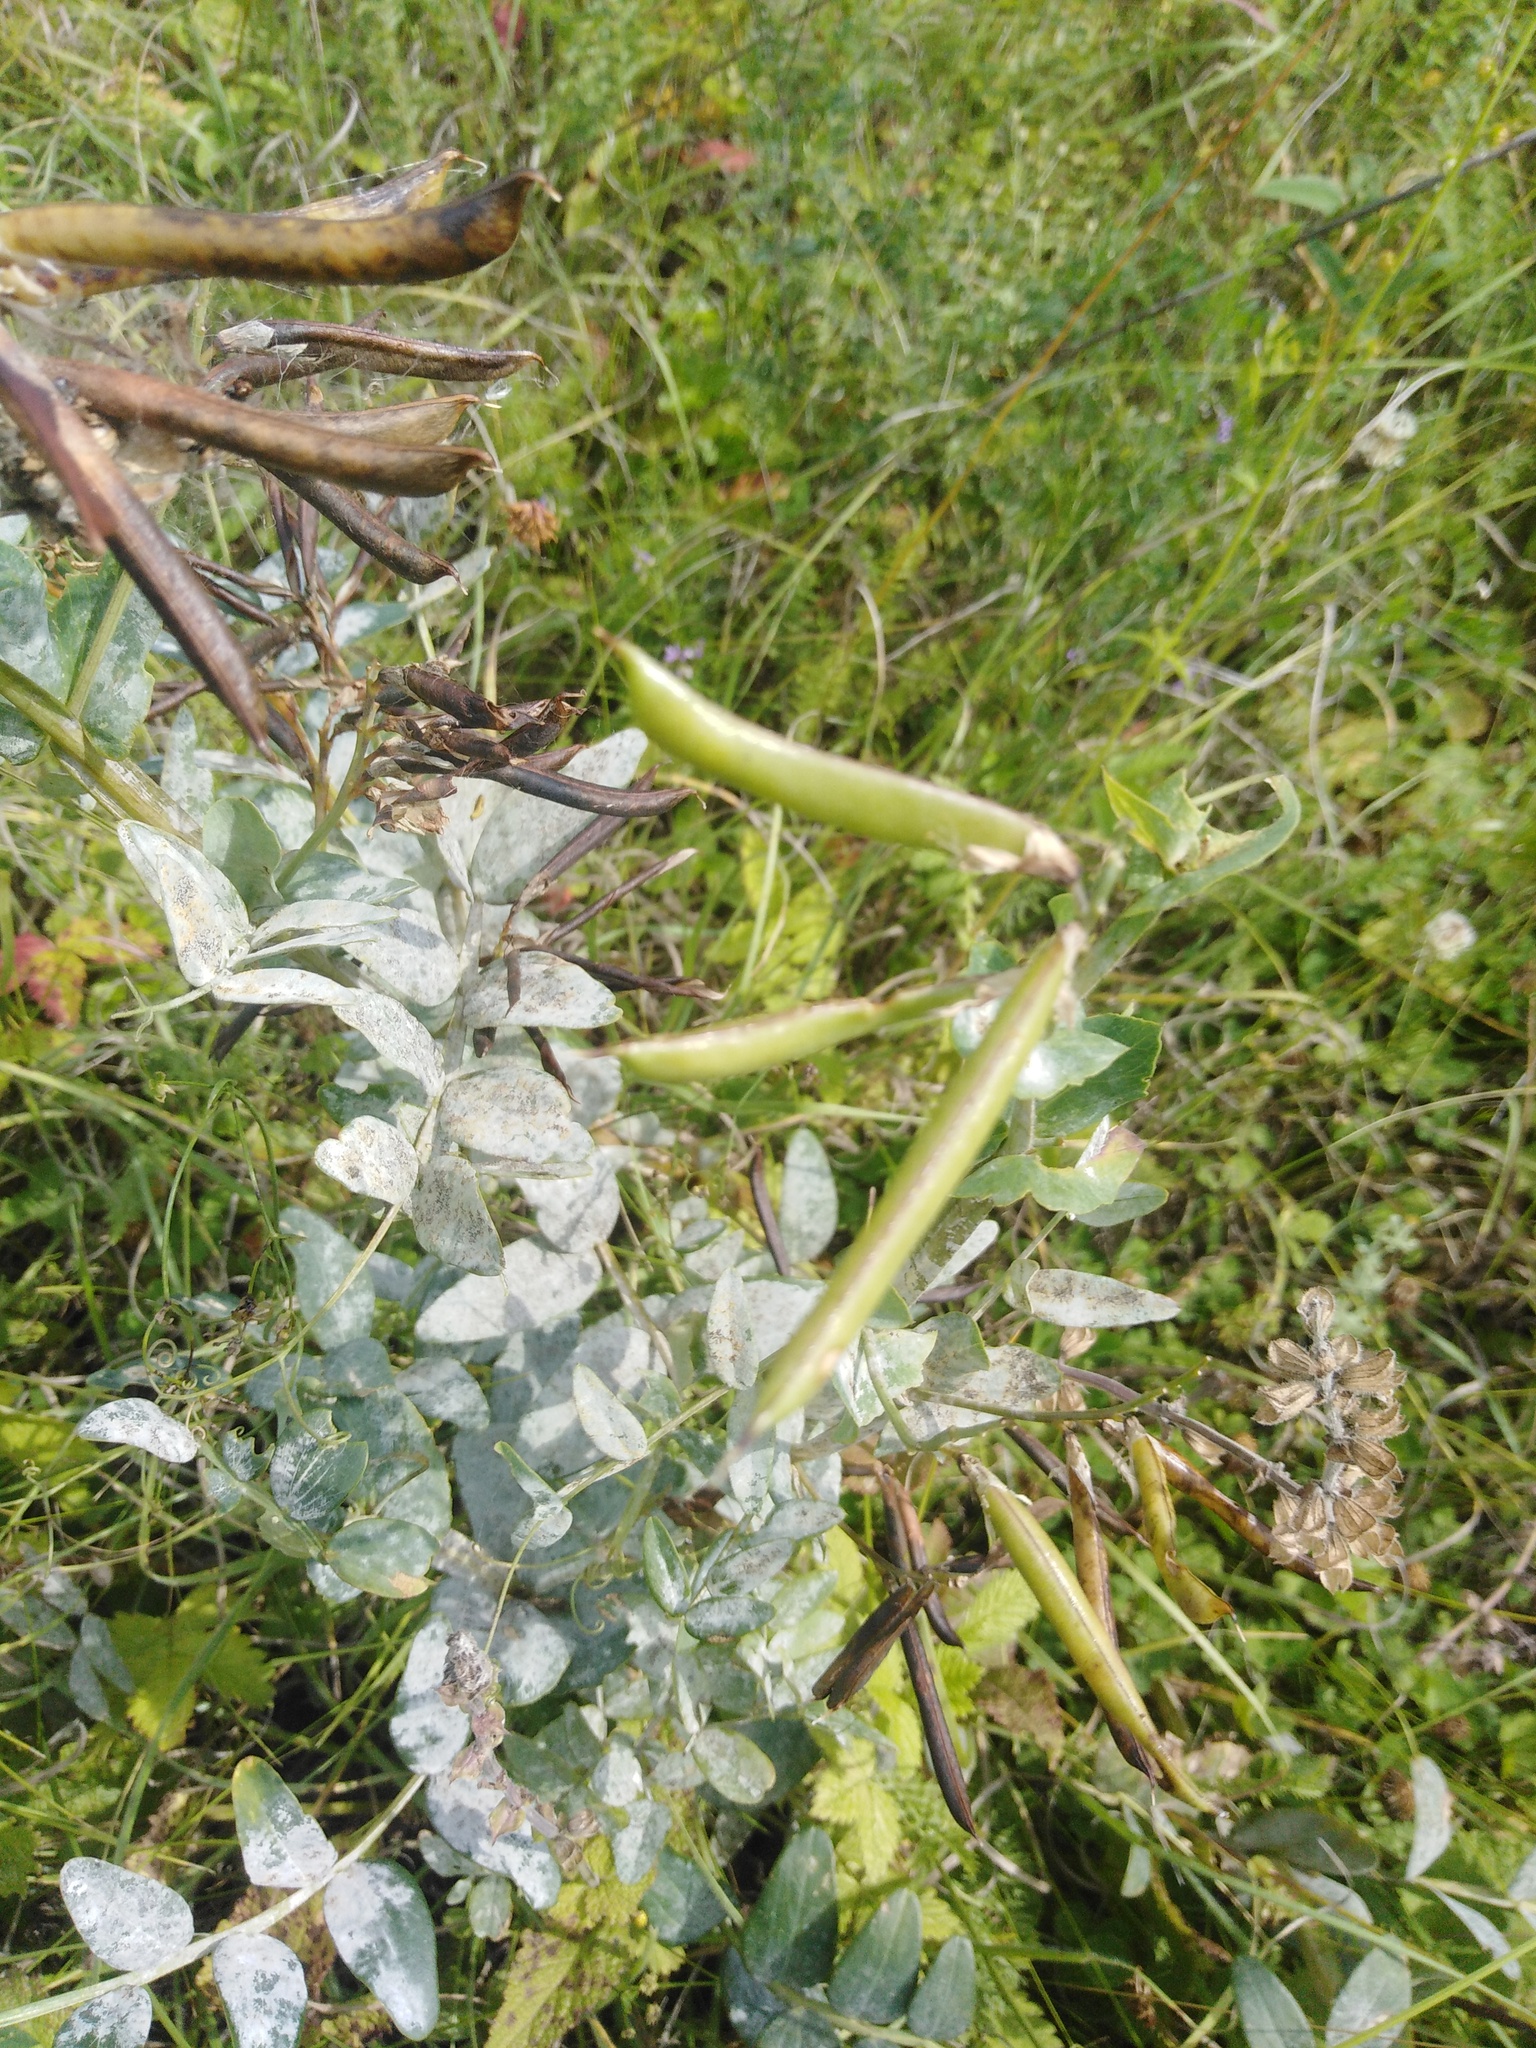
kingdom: Plantae
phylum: Tracheophyta
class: Magnoliopsida
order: Fabales
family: Fabaceae
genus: Lathyrus
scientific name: Lathyrus pisiformis
